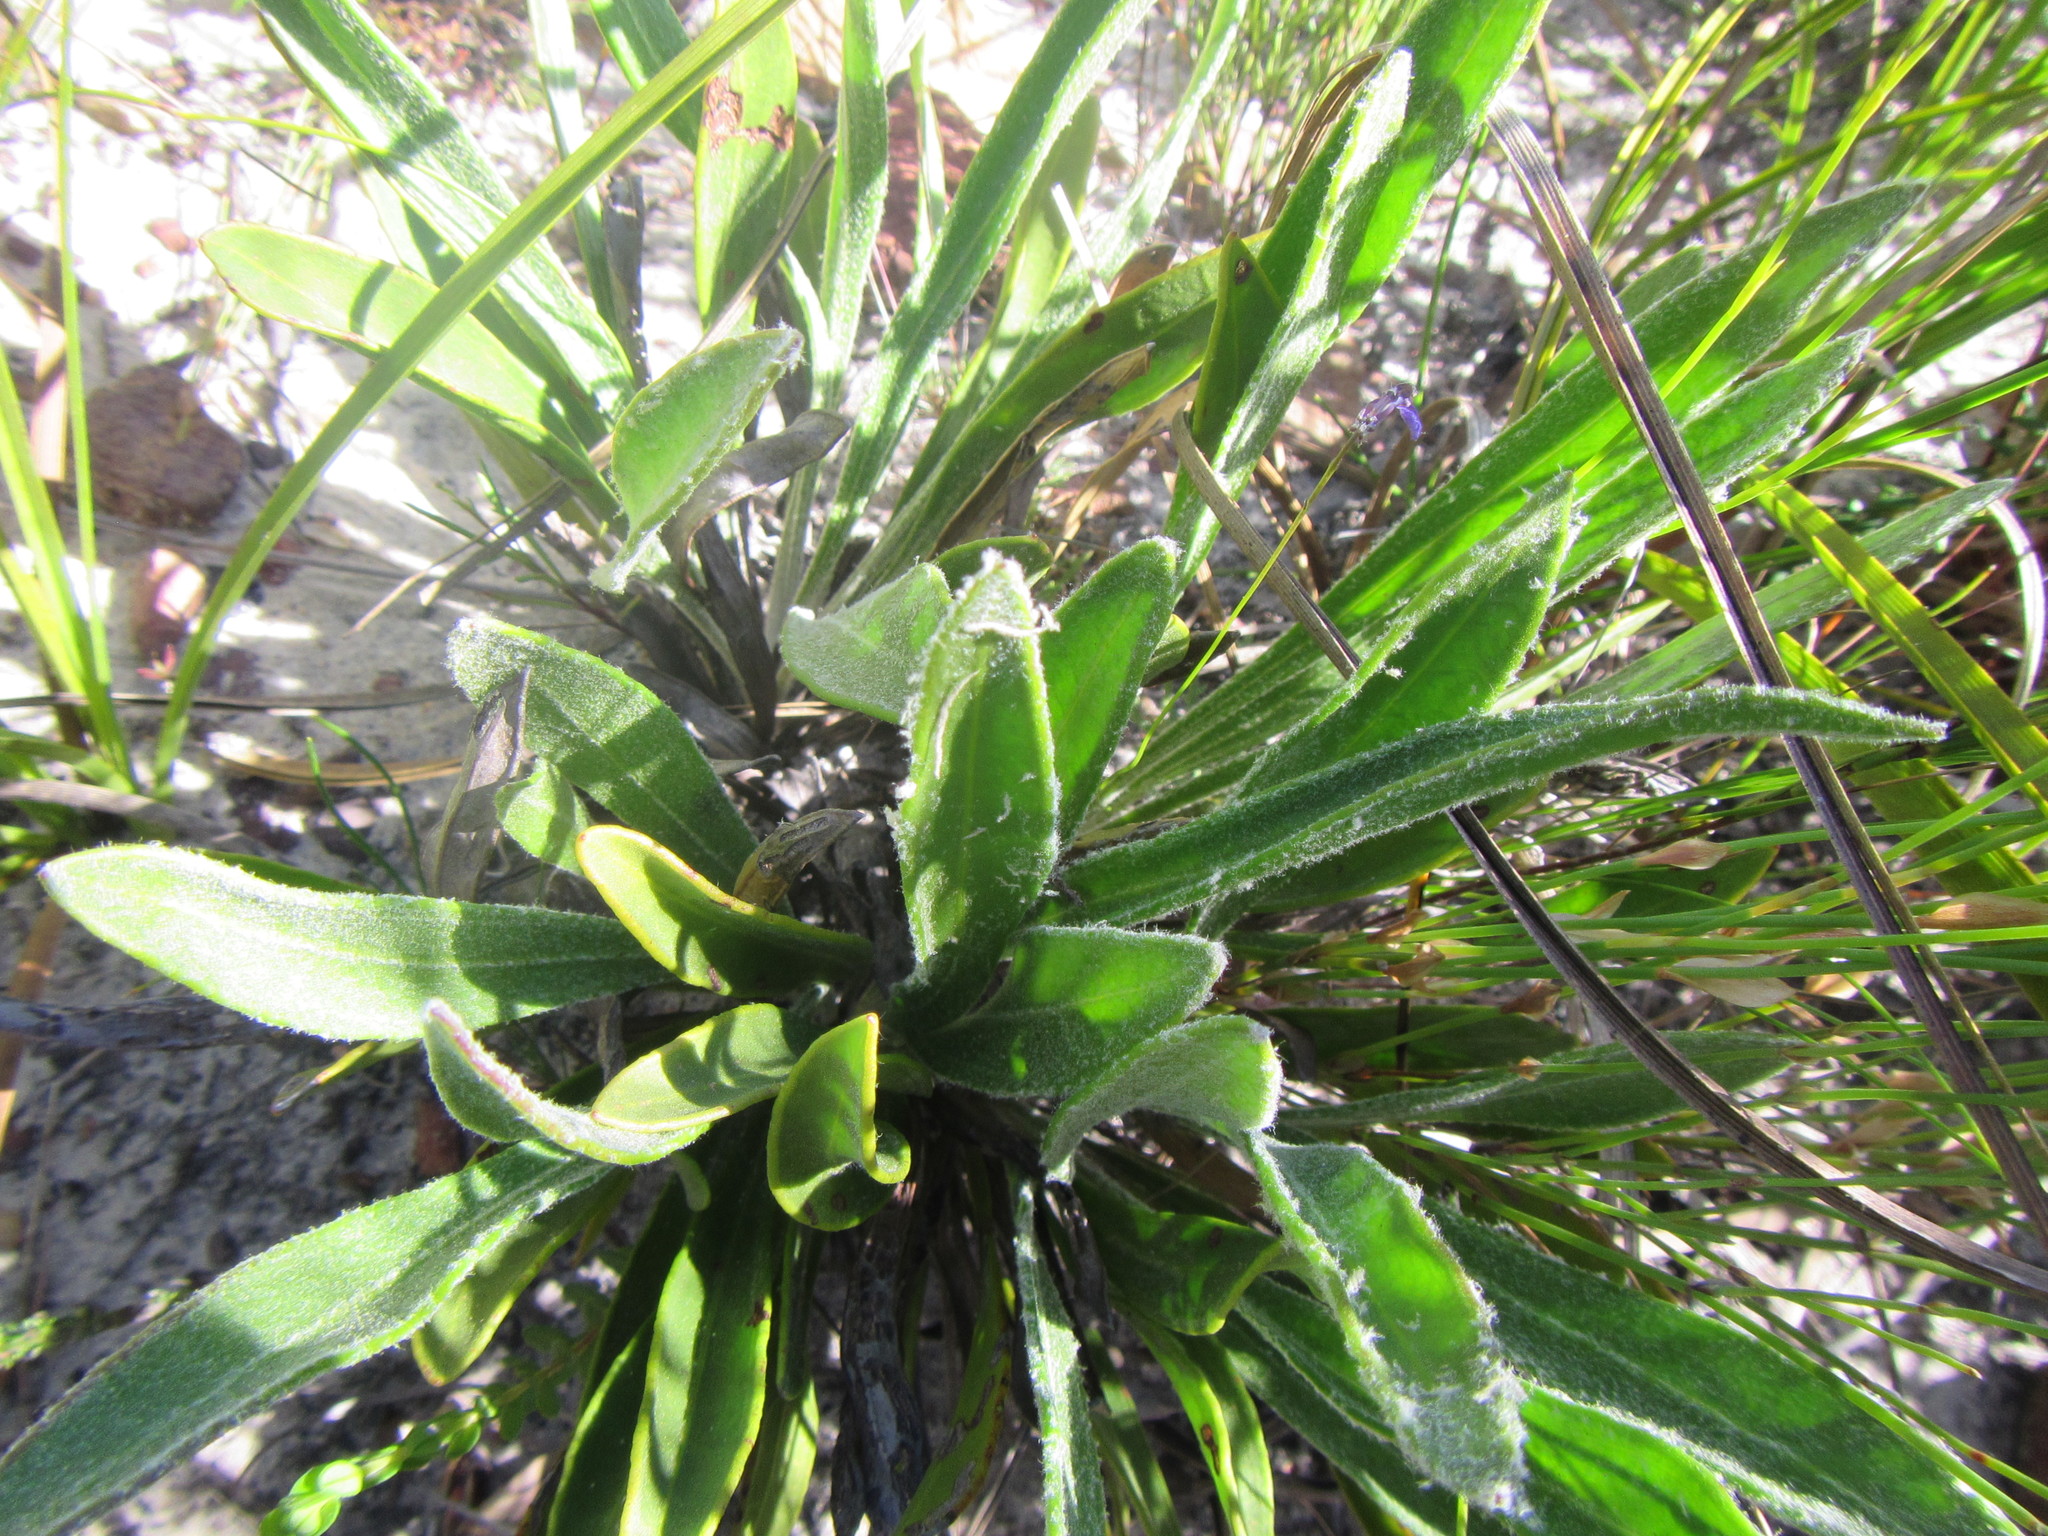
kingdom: Plantae
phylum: Tracheophyta
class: Magnoliopsida
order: Asterales
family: Asteraceae
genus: Mairia
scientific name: Mairia coriacea
